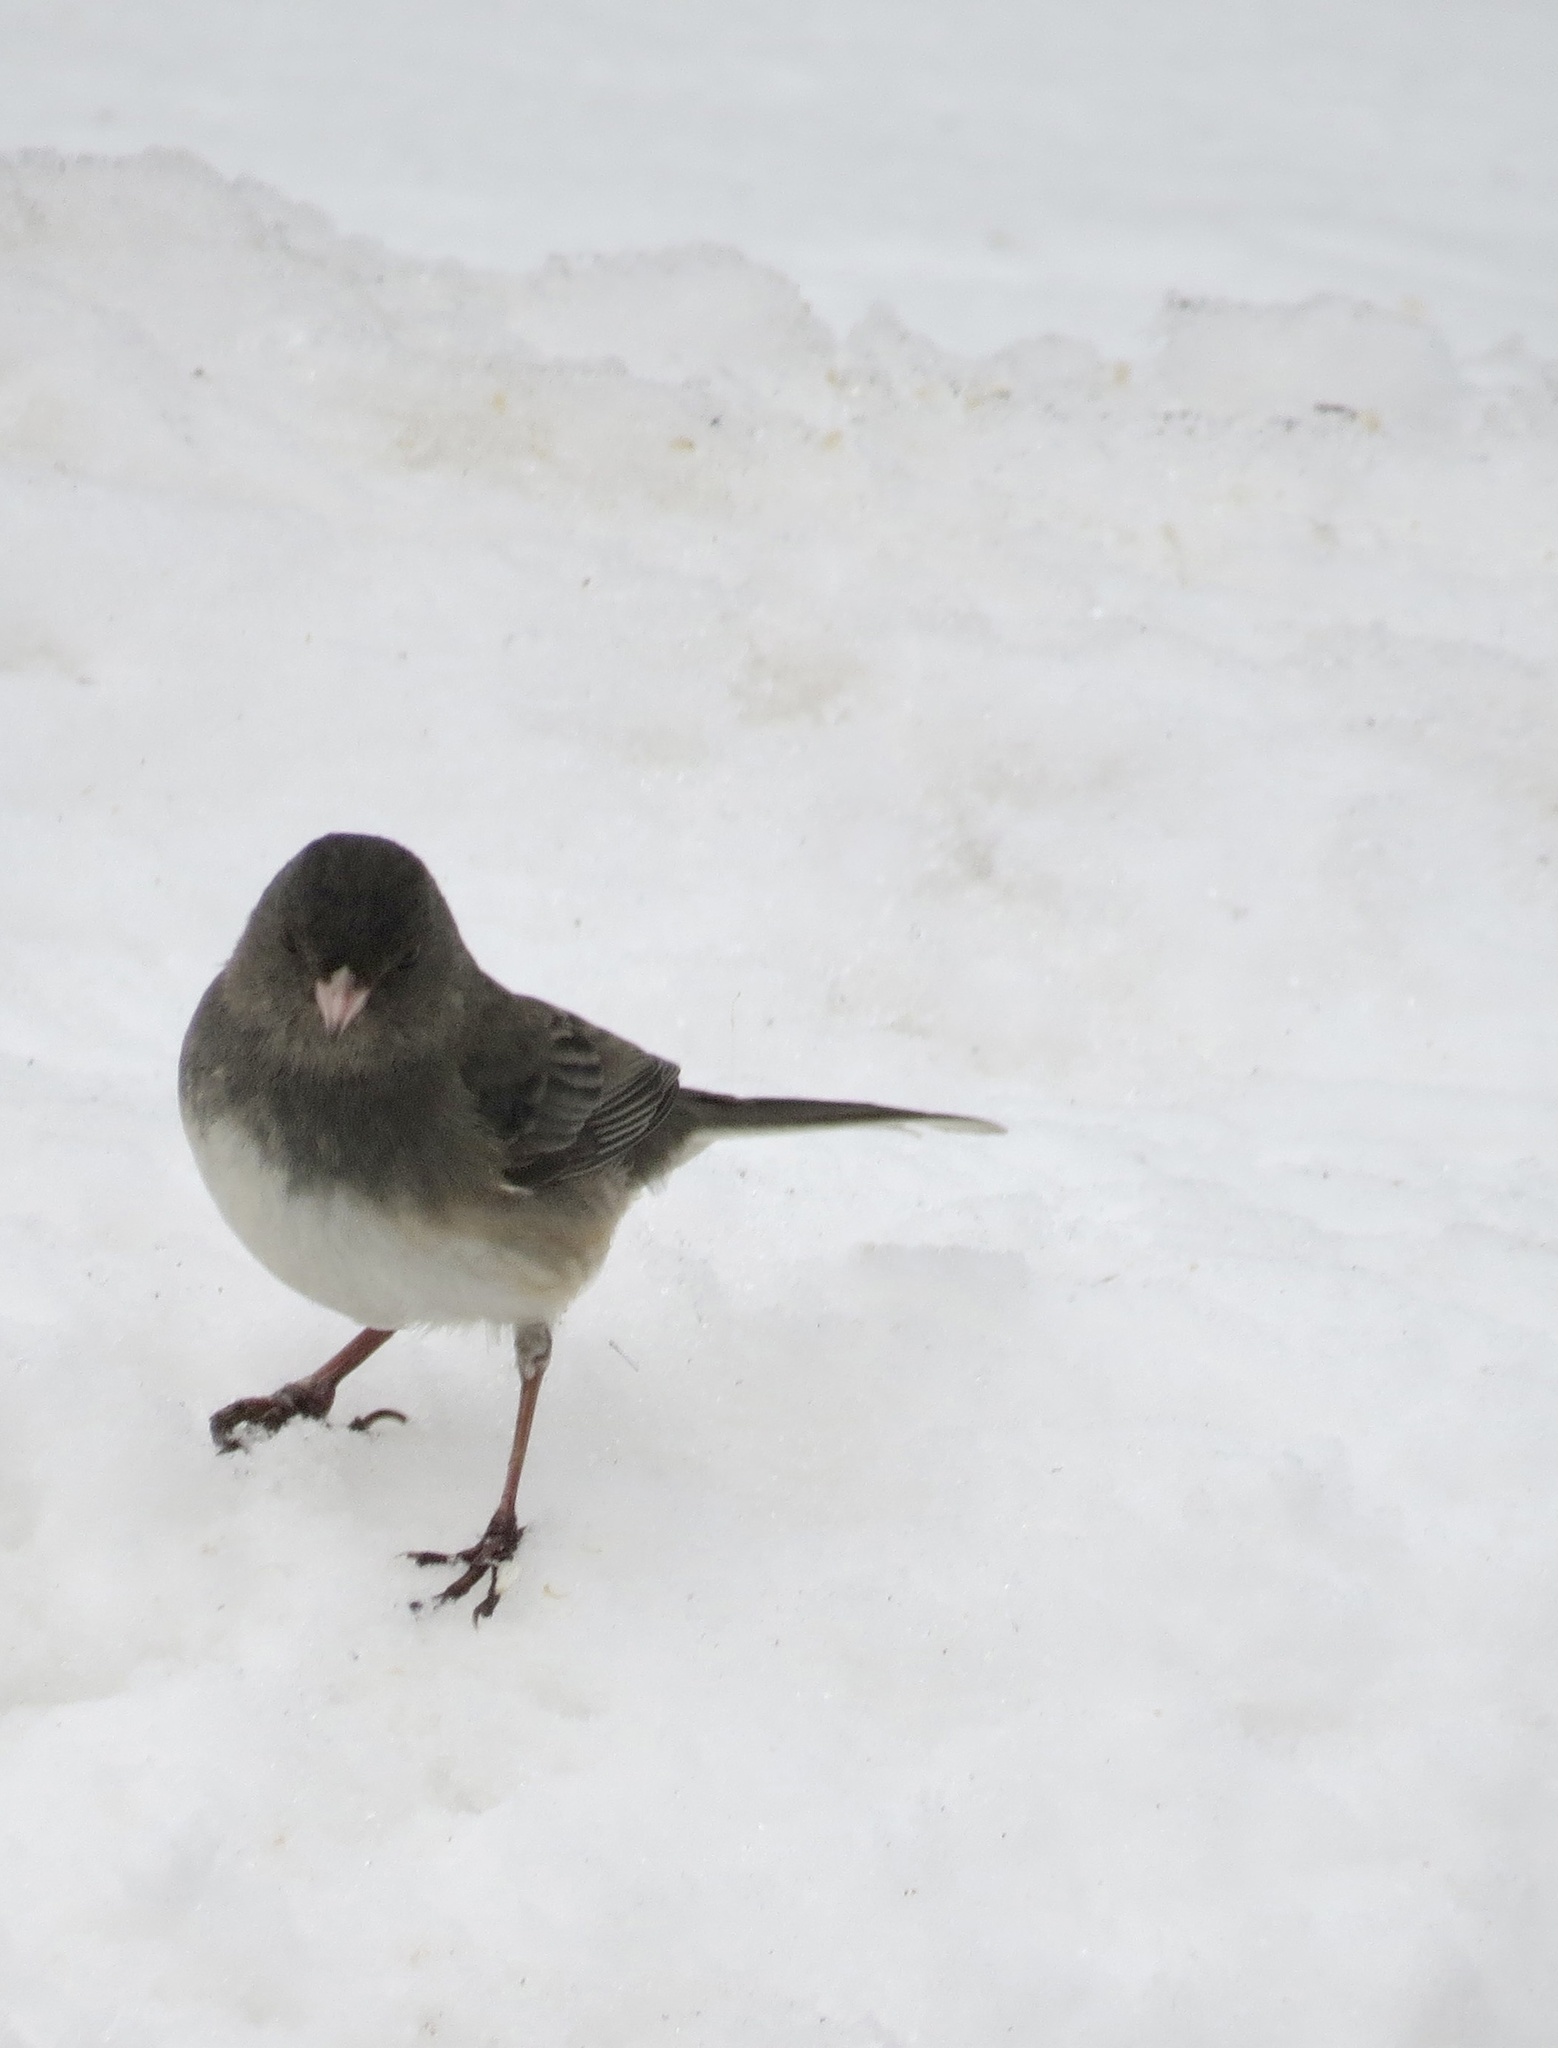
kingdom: Animalia
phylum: Chordata
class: Aves
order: Passeriformes
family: Passerellidae
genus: Junco
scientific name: Junco hyemalis
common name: Dark-eyed junco
